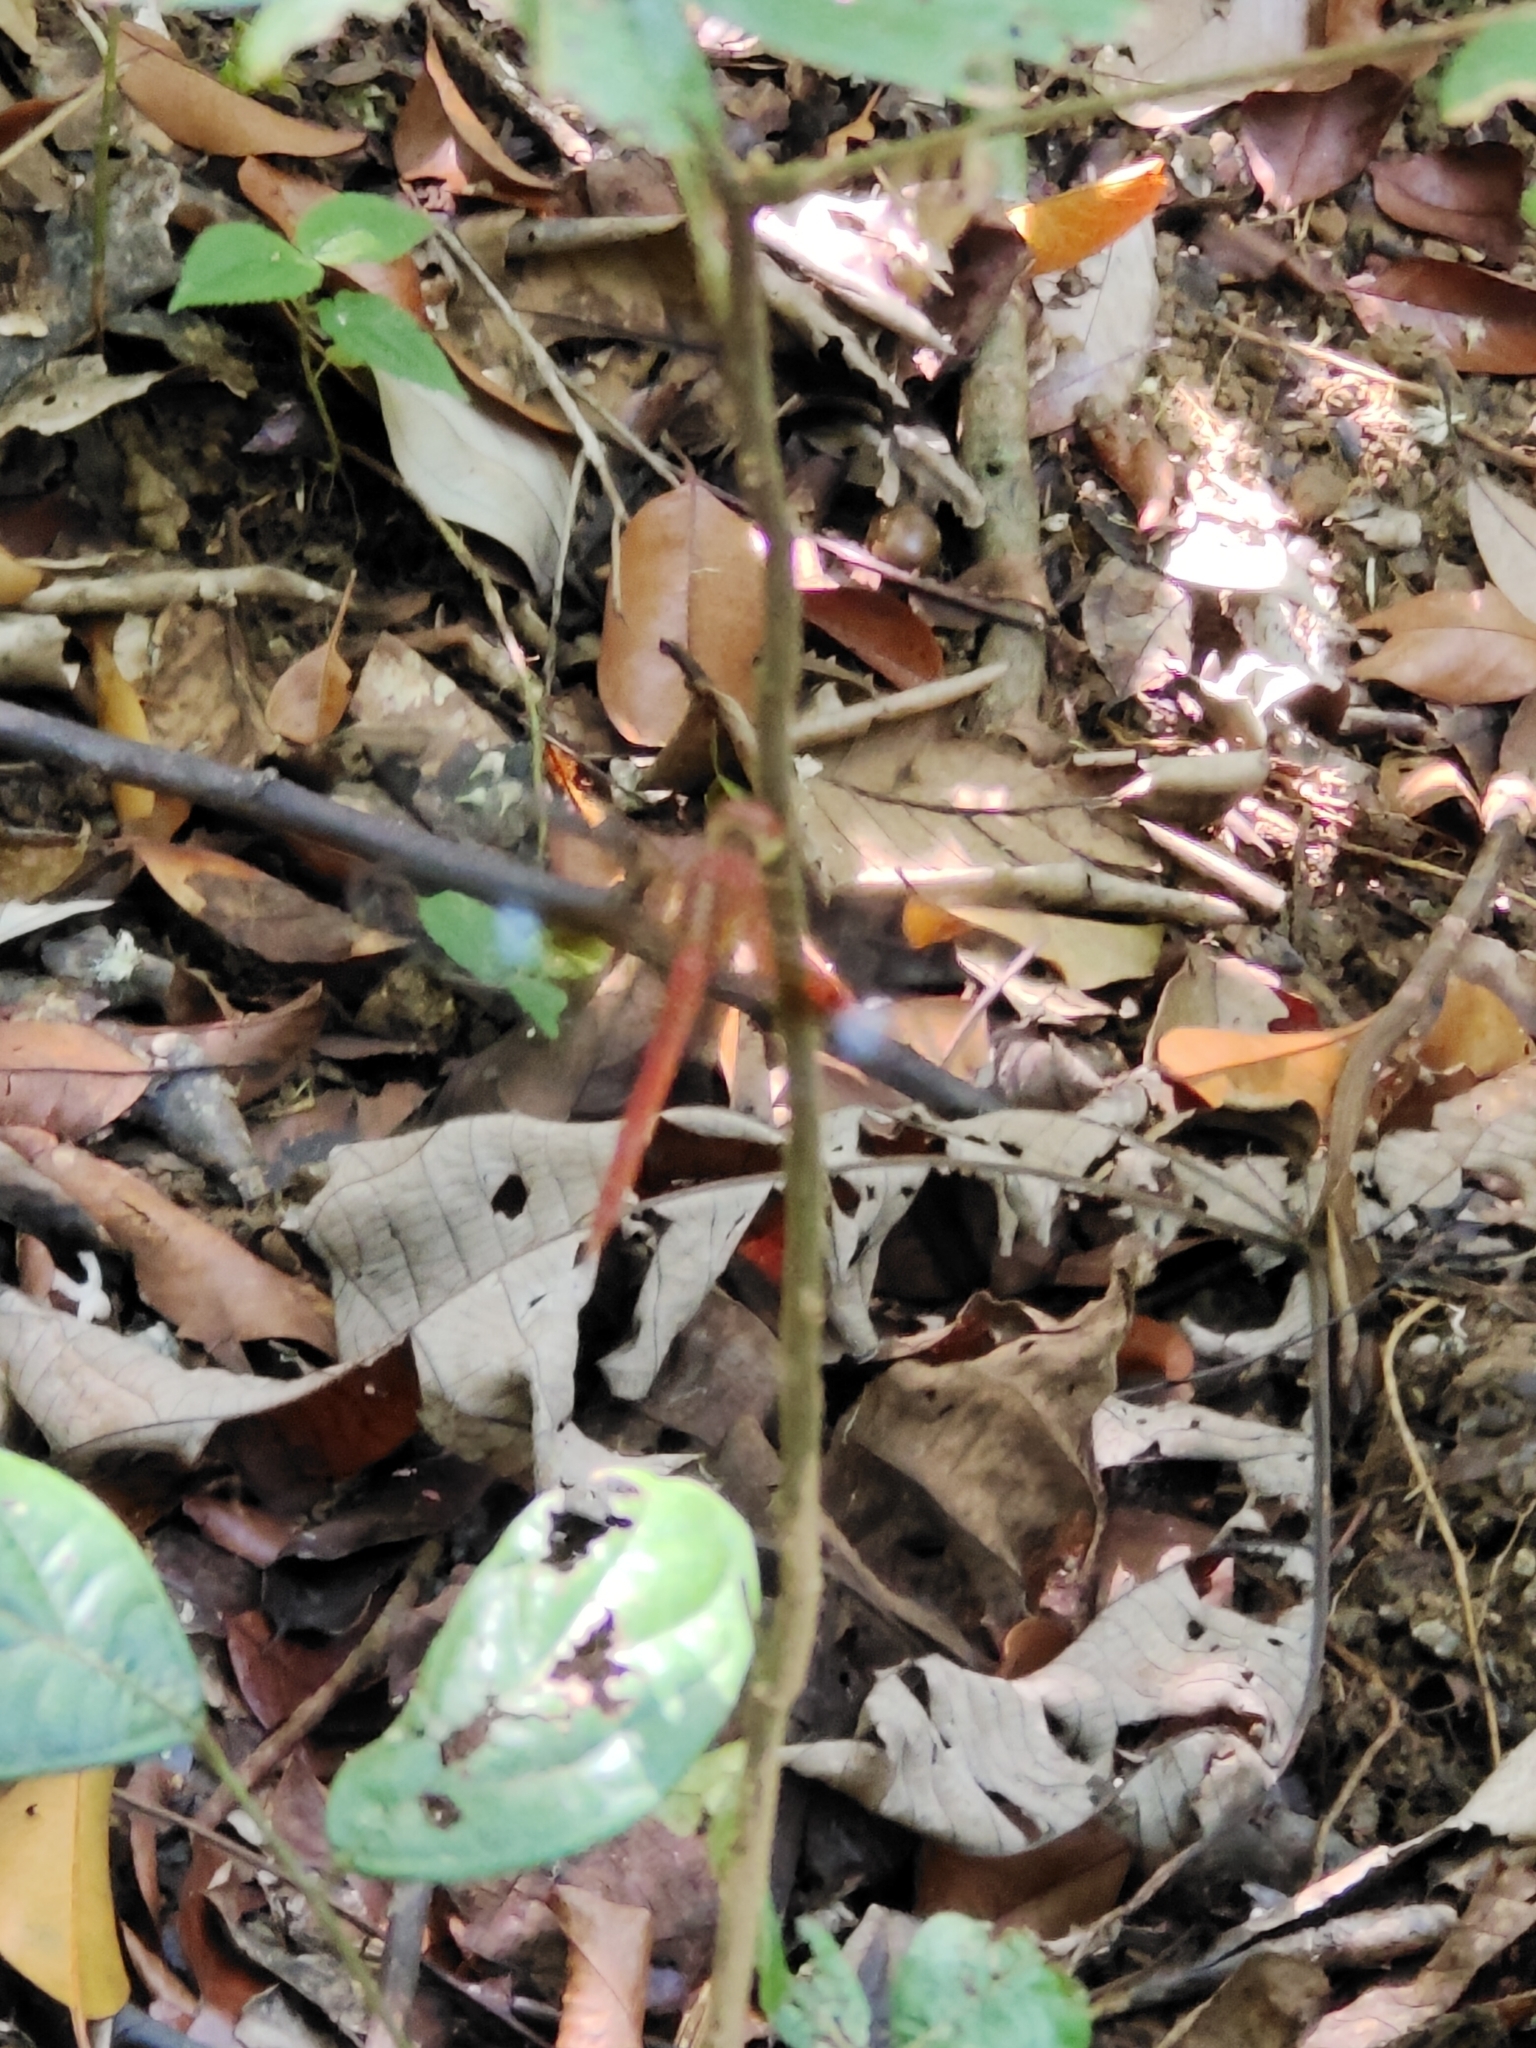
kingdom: Animalia
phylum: Arthropoda
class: Insecta
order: Odonata
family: Libellulidae
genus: Tholymis
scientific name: Tholymis tillarga
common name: Coral-tailed cloud wing
